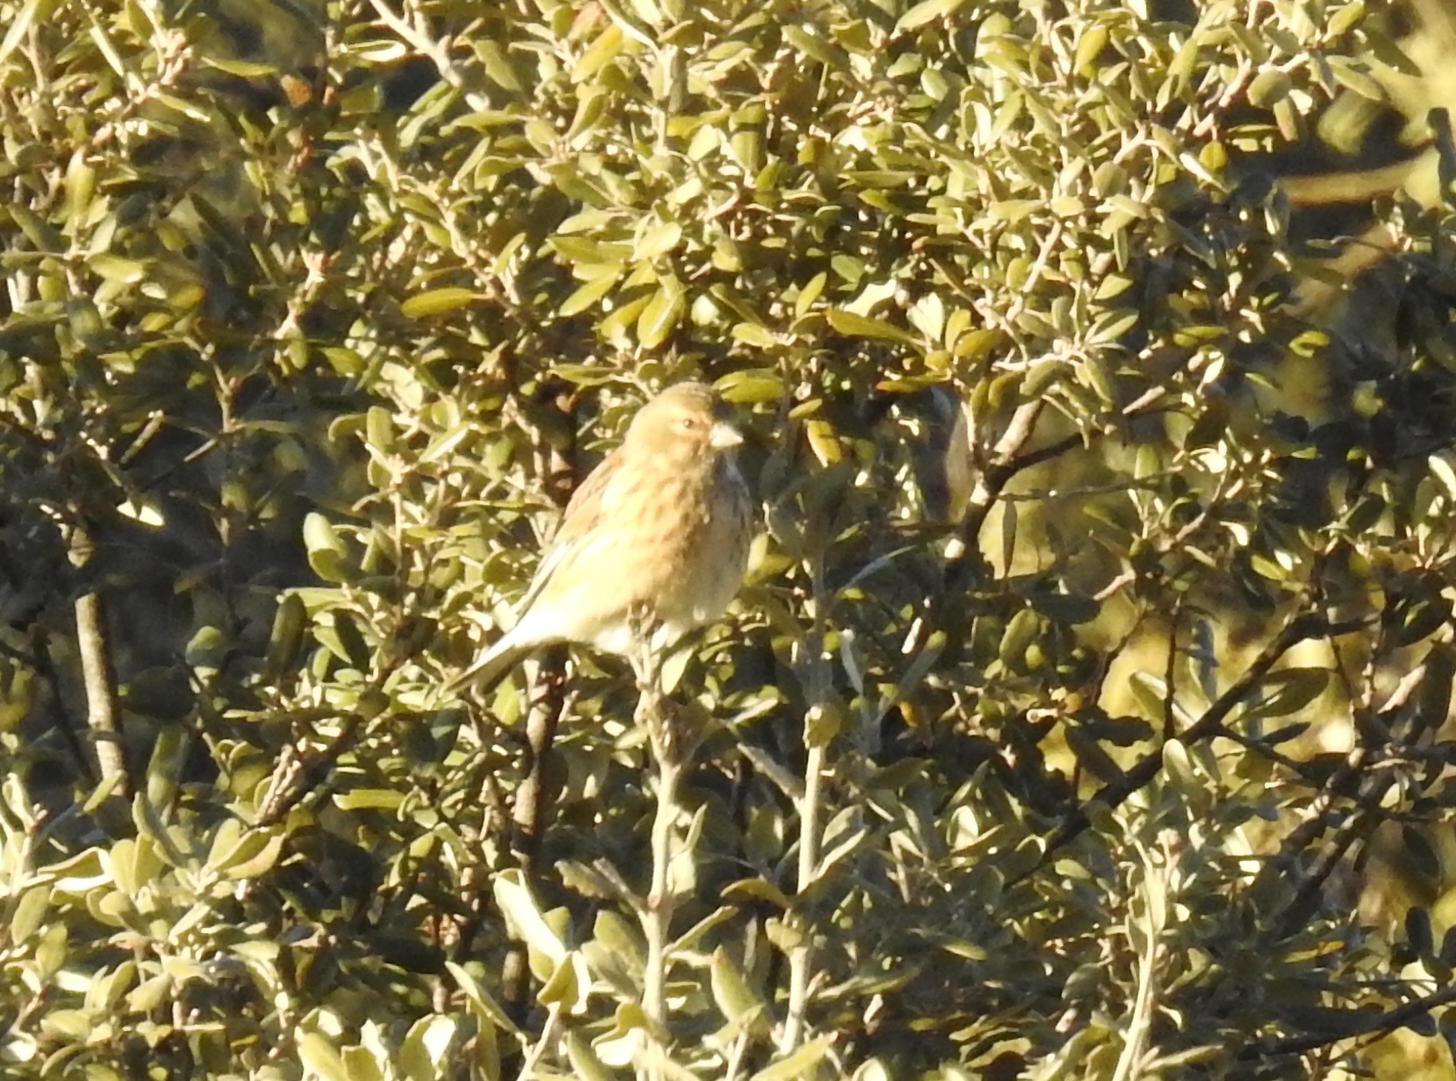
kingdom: Animalia
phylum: Chordata
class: Aves
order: Passeriformes
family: Fringillidae
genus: Linaria
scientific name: Linaria cannabina
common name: Common linnet
